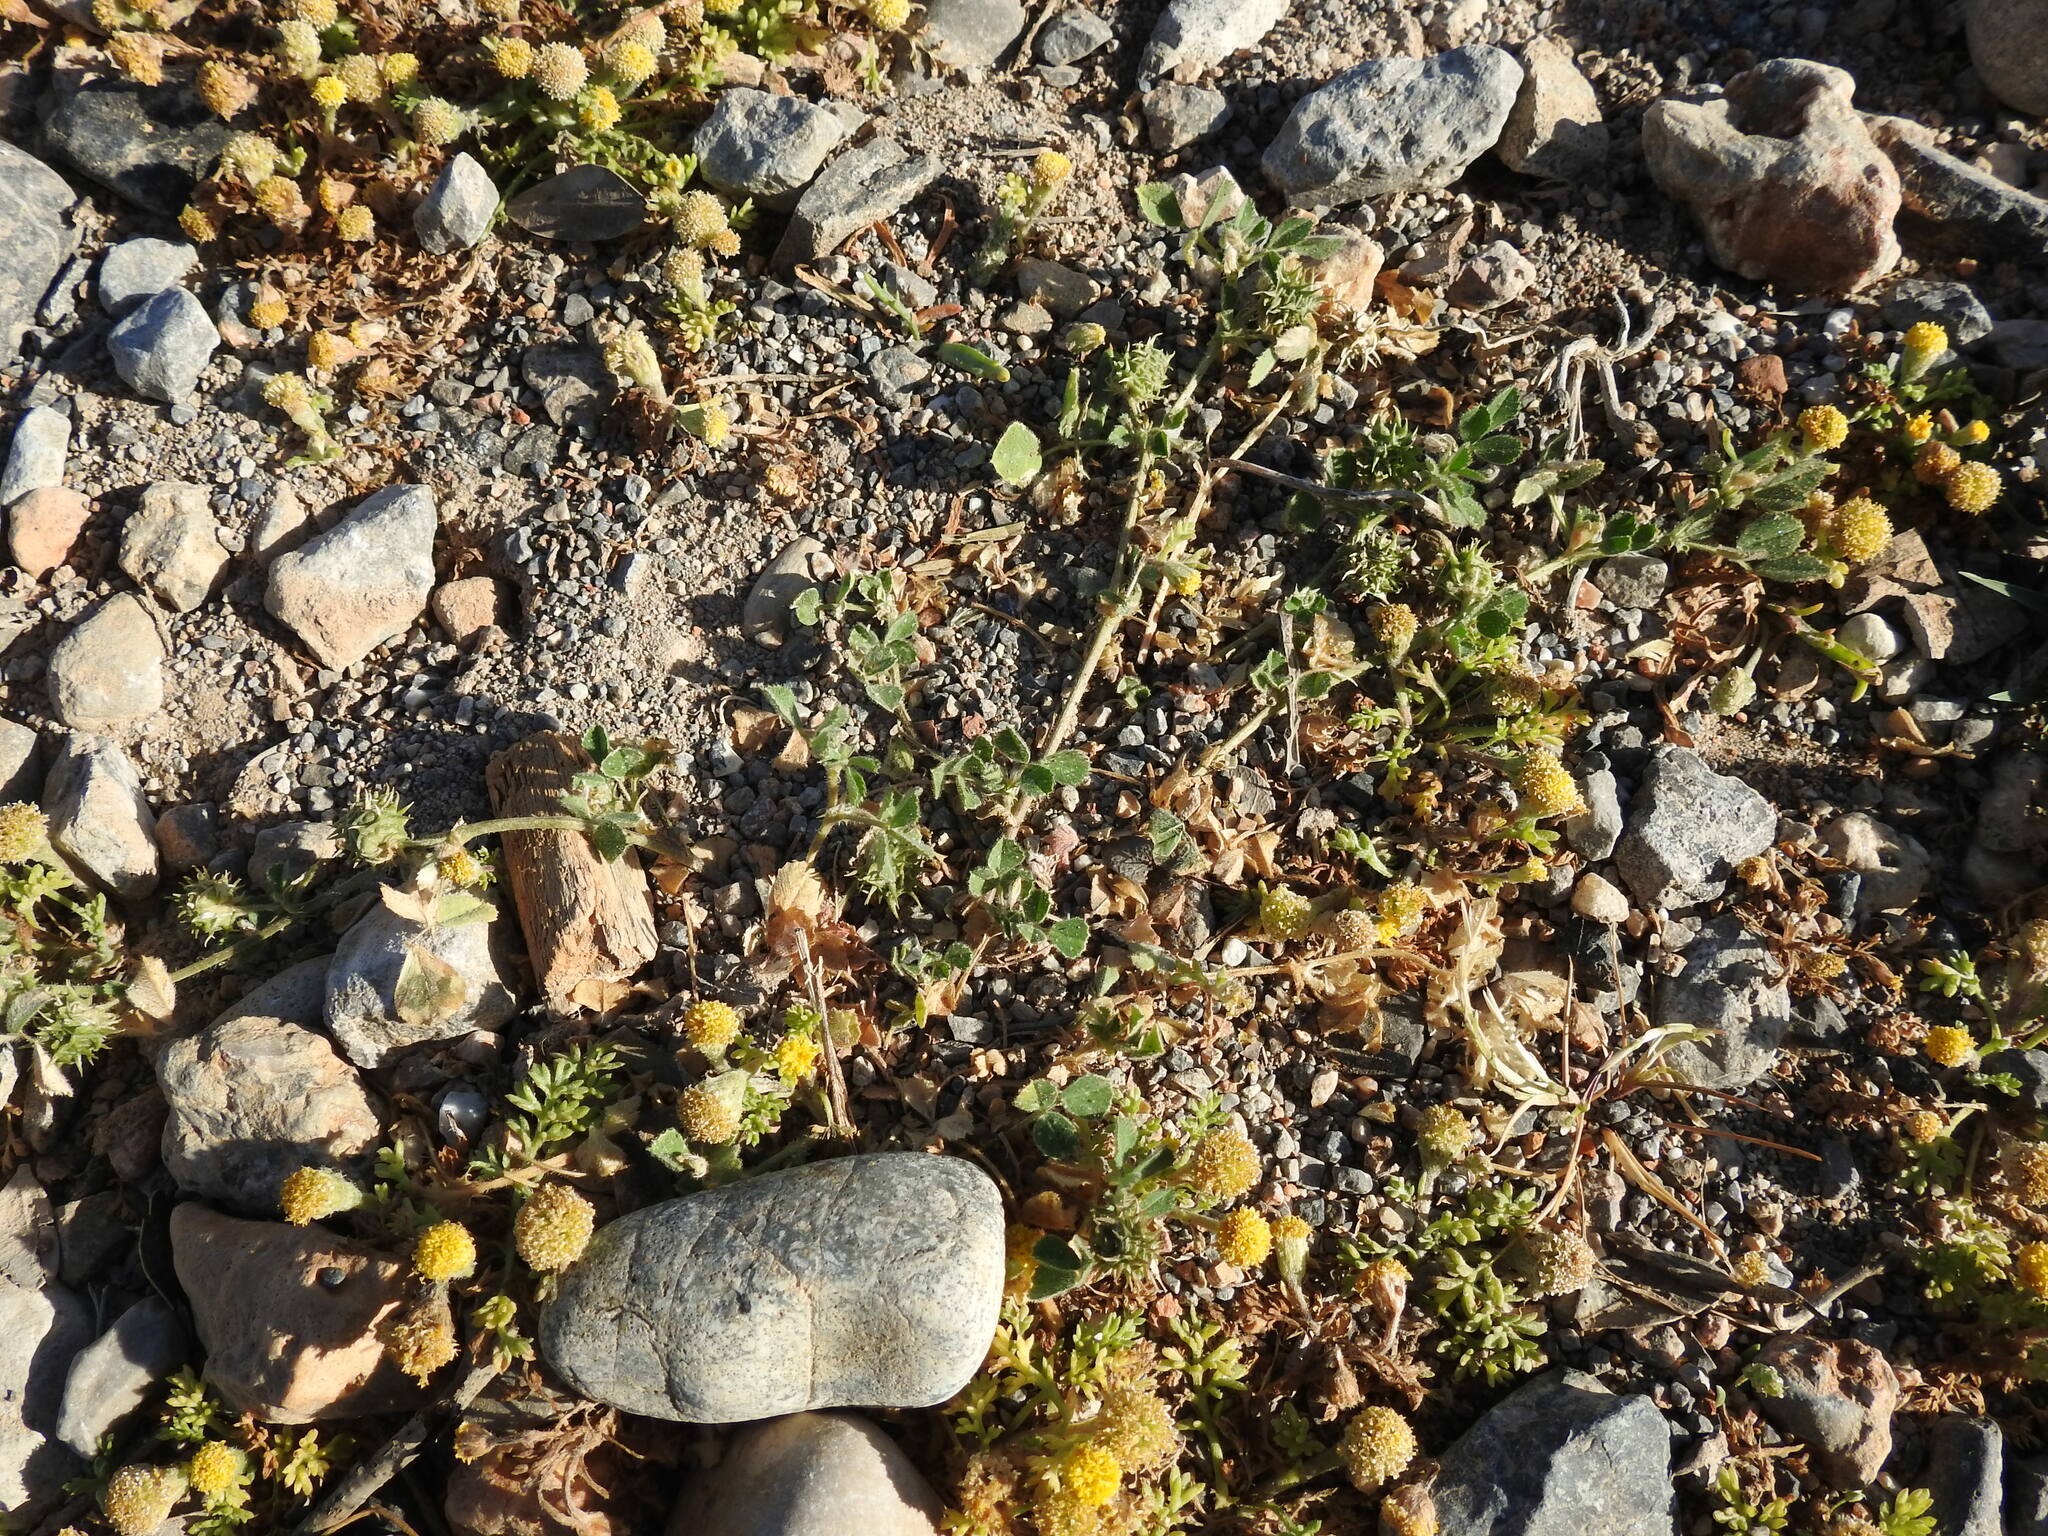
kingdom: Plantae
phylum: Tracheophyta
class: Magnoliopsida
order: Fabales
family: Fabaceae
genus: Medicago
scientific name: Medicago truncatula
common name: Strong-spined medick
